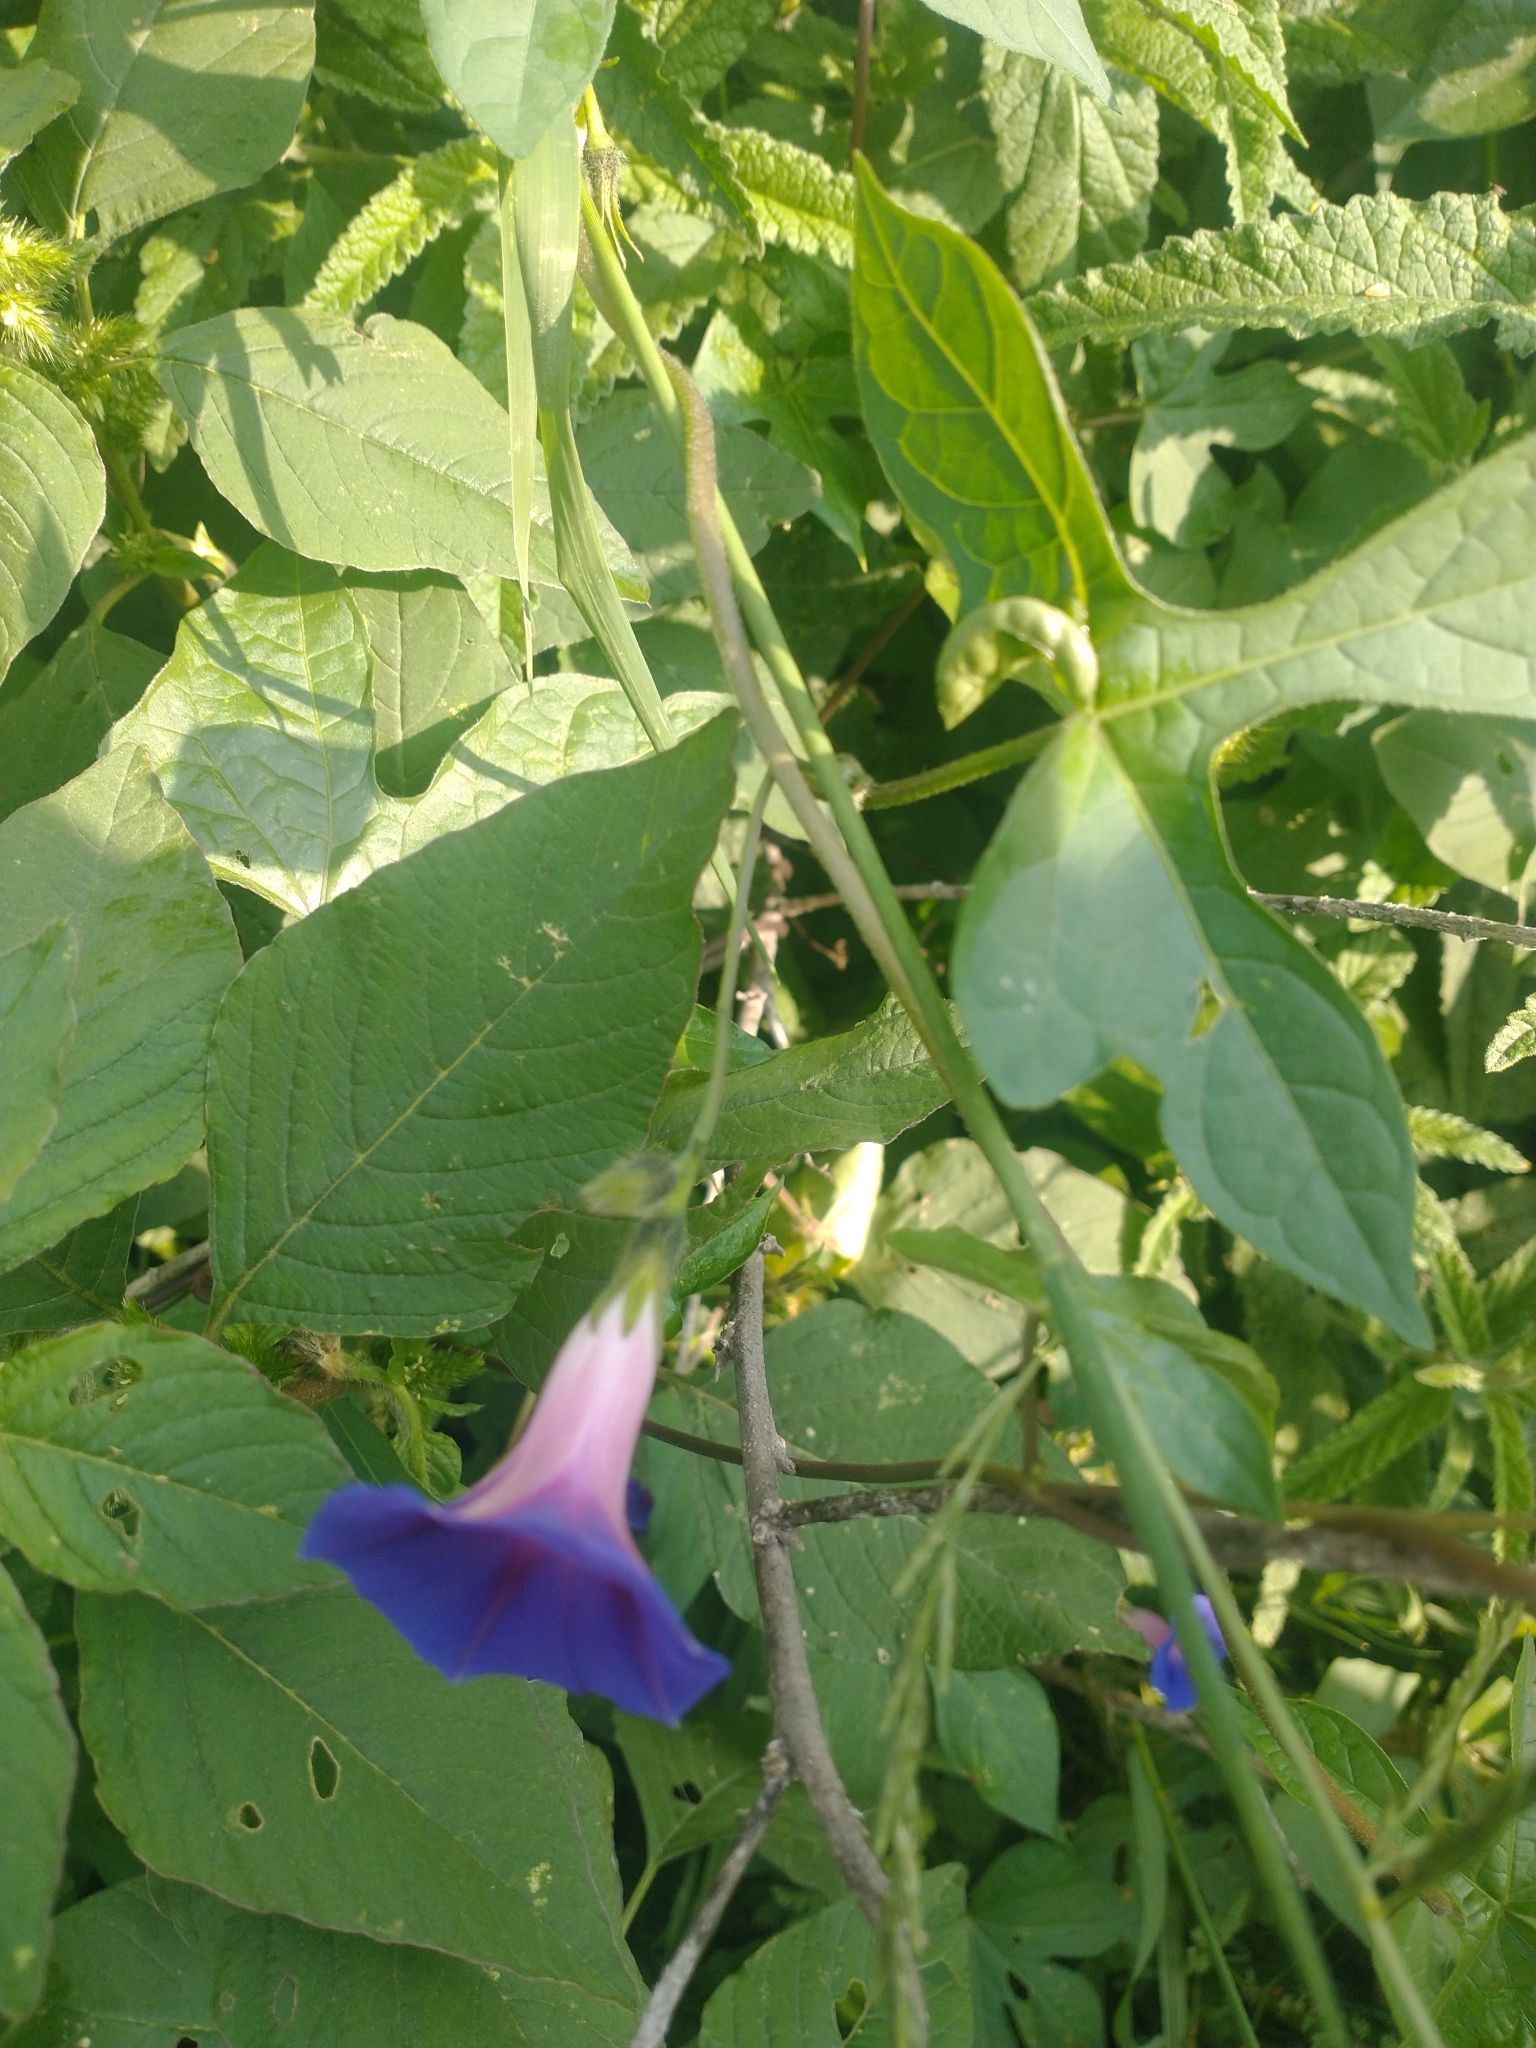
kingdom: Plantae
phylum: Tracheophyta
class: Magnoliopsida
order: Solanales
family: Convolvulaceae
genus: Ipomoea
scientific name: Ipomoea purpurea
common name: Common morning-glory
